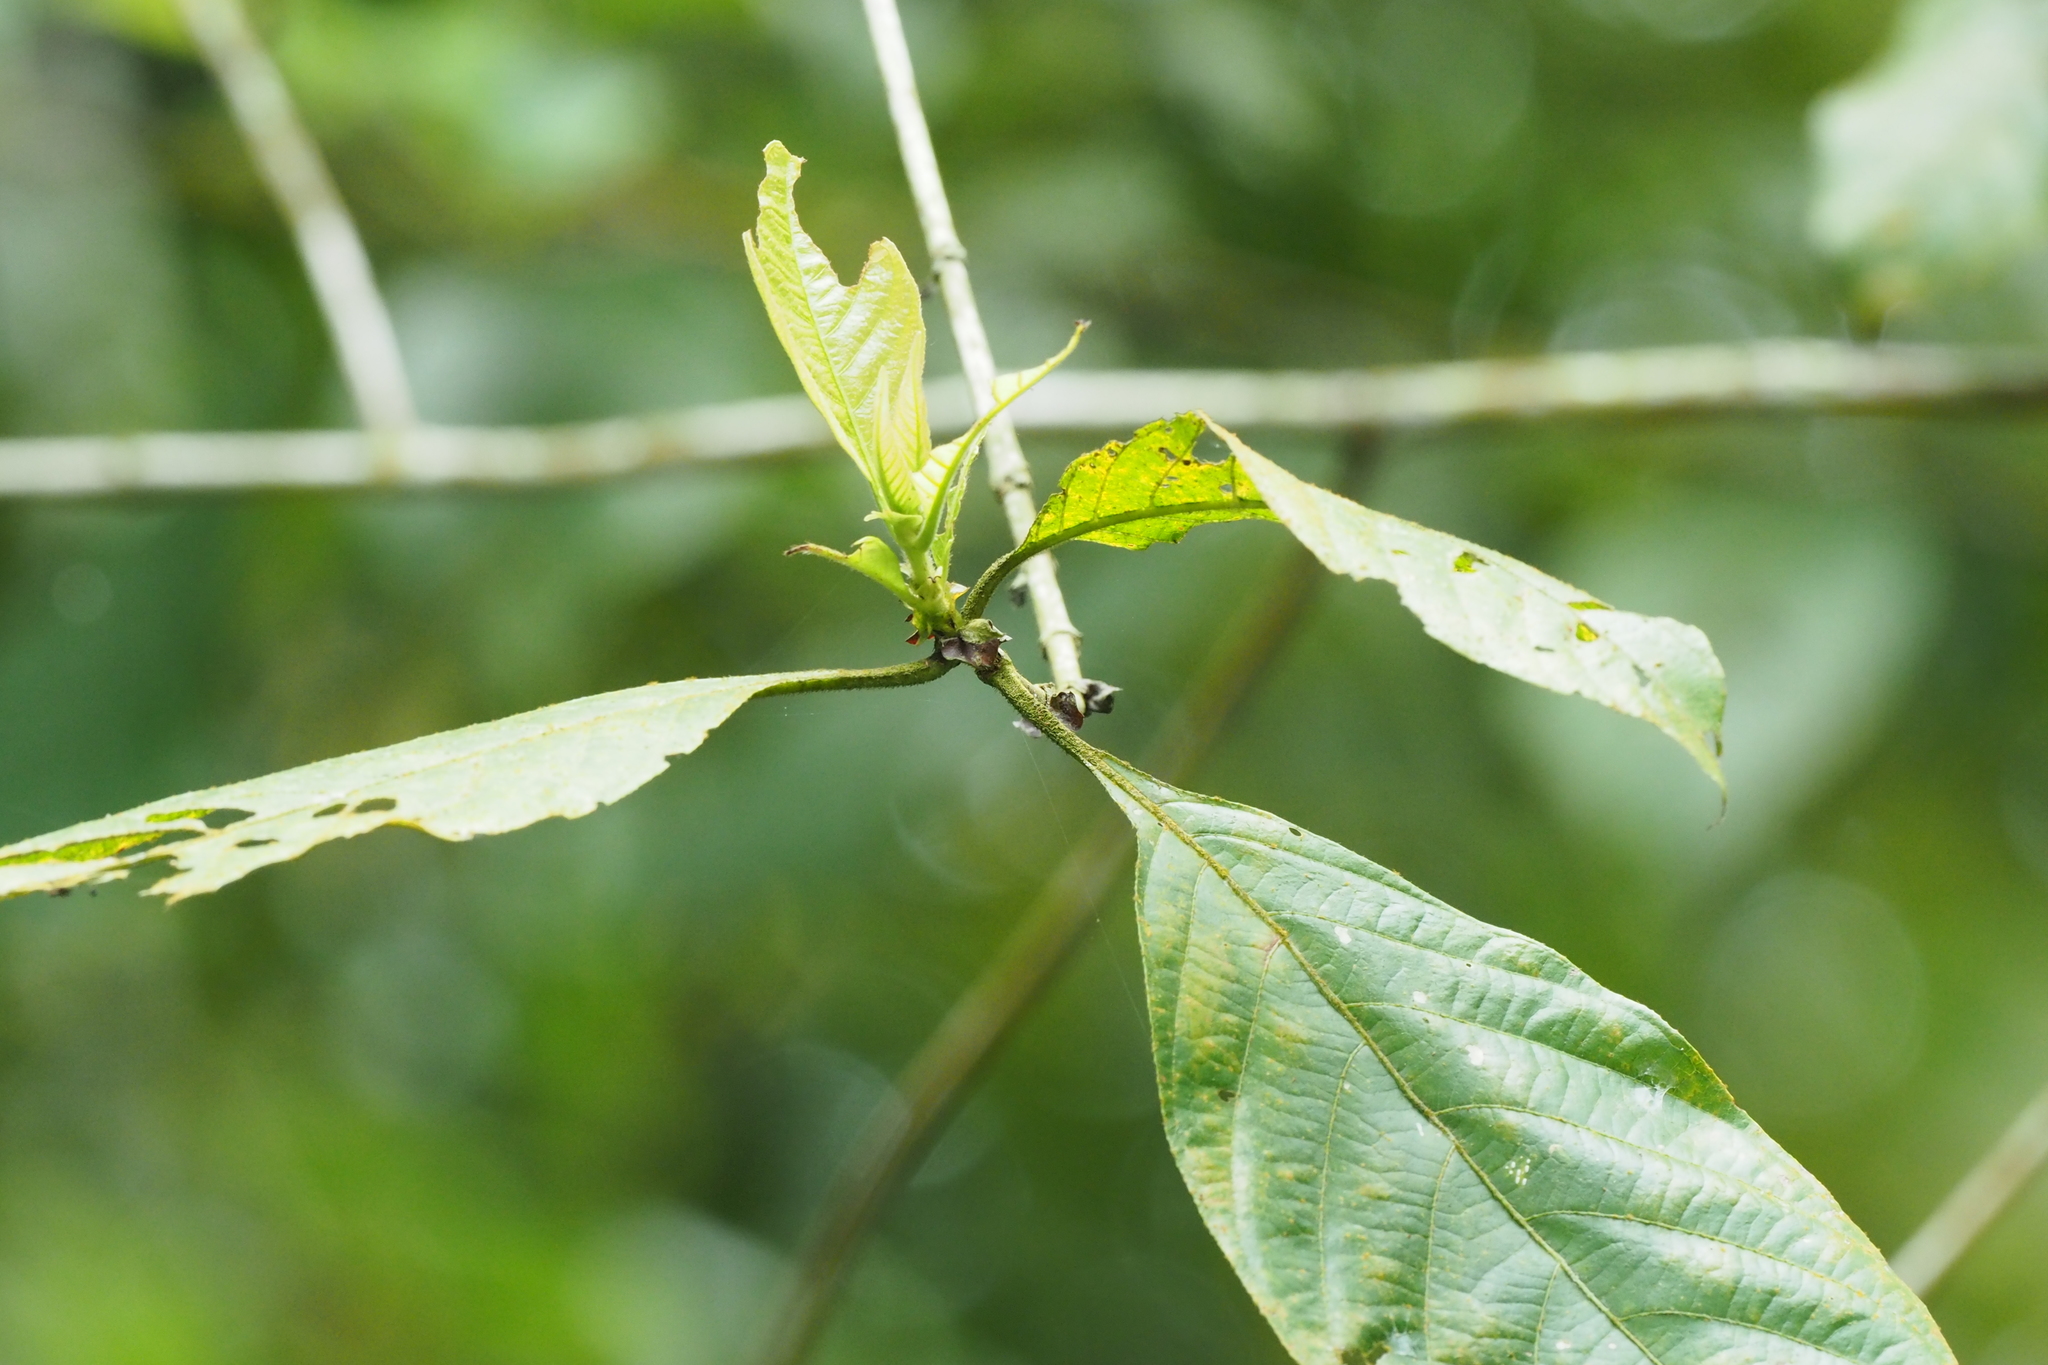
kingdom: Plantae
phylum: Tracheophyta
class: Magnoliopsida
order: Gentianales
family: Rubiaceae
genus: Wendlandia
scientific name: Wendlandia uvariifolia
